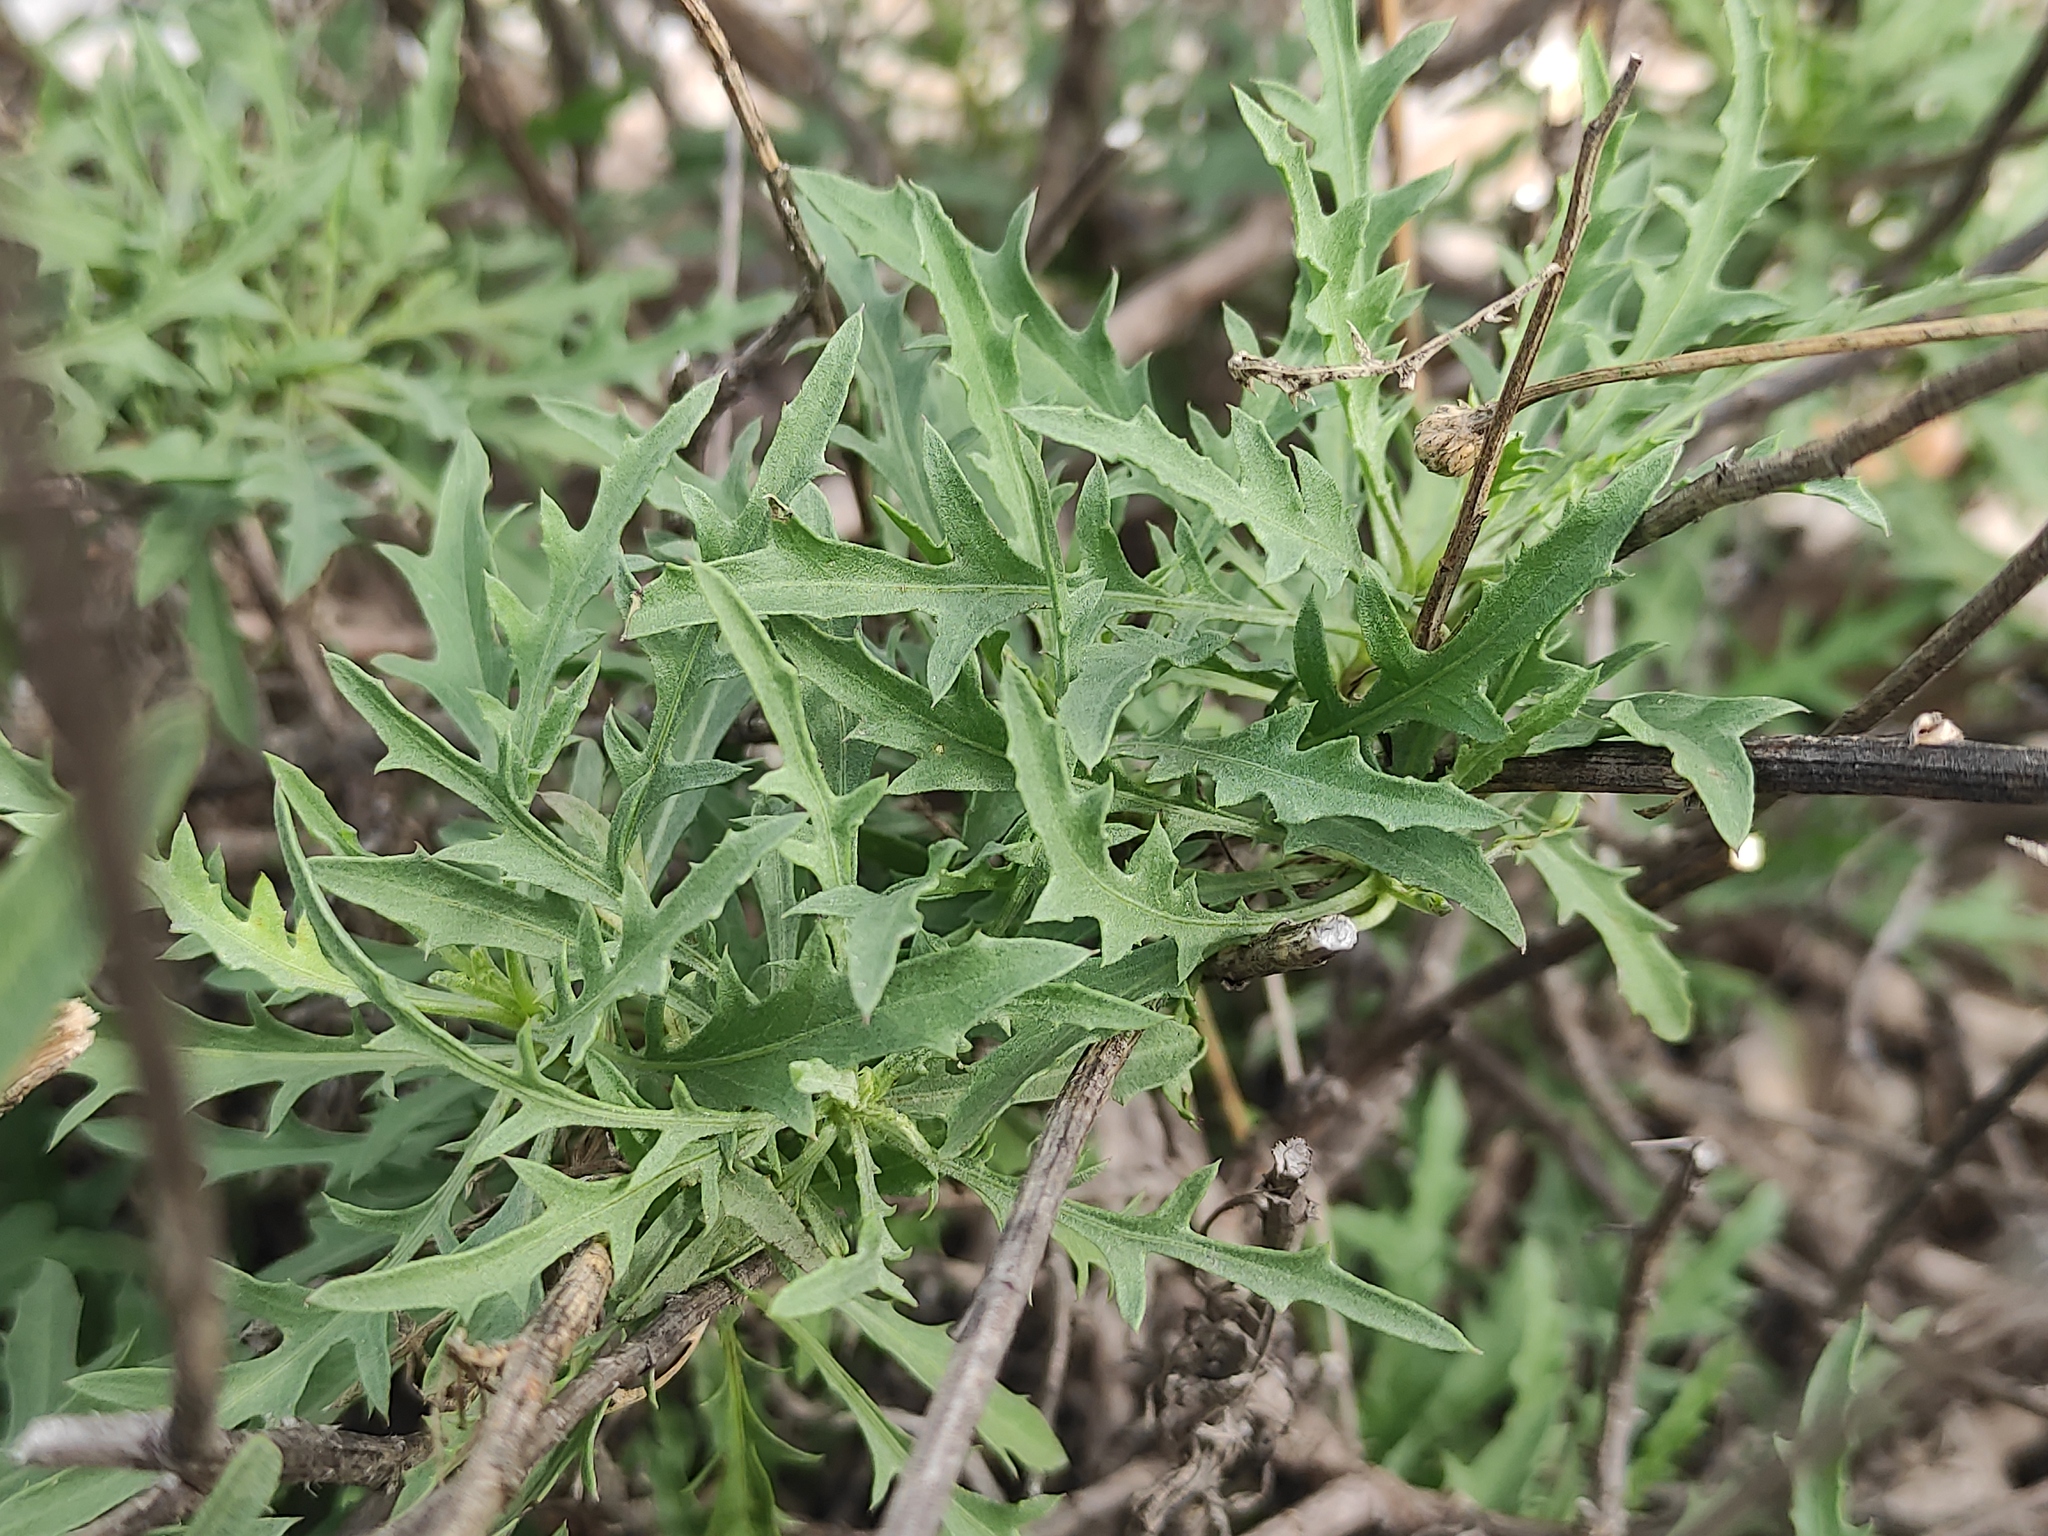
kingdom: Plantae
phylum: Tracheophyta
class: Magnoliopsida
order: Asterales
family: Asteraceae
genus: Cheirolophus
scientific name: Cheirolophus intybaceus
